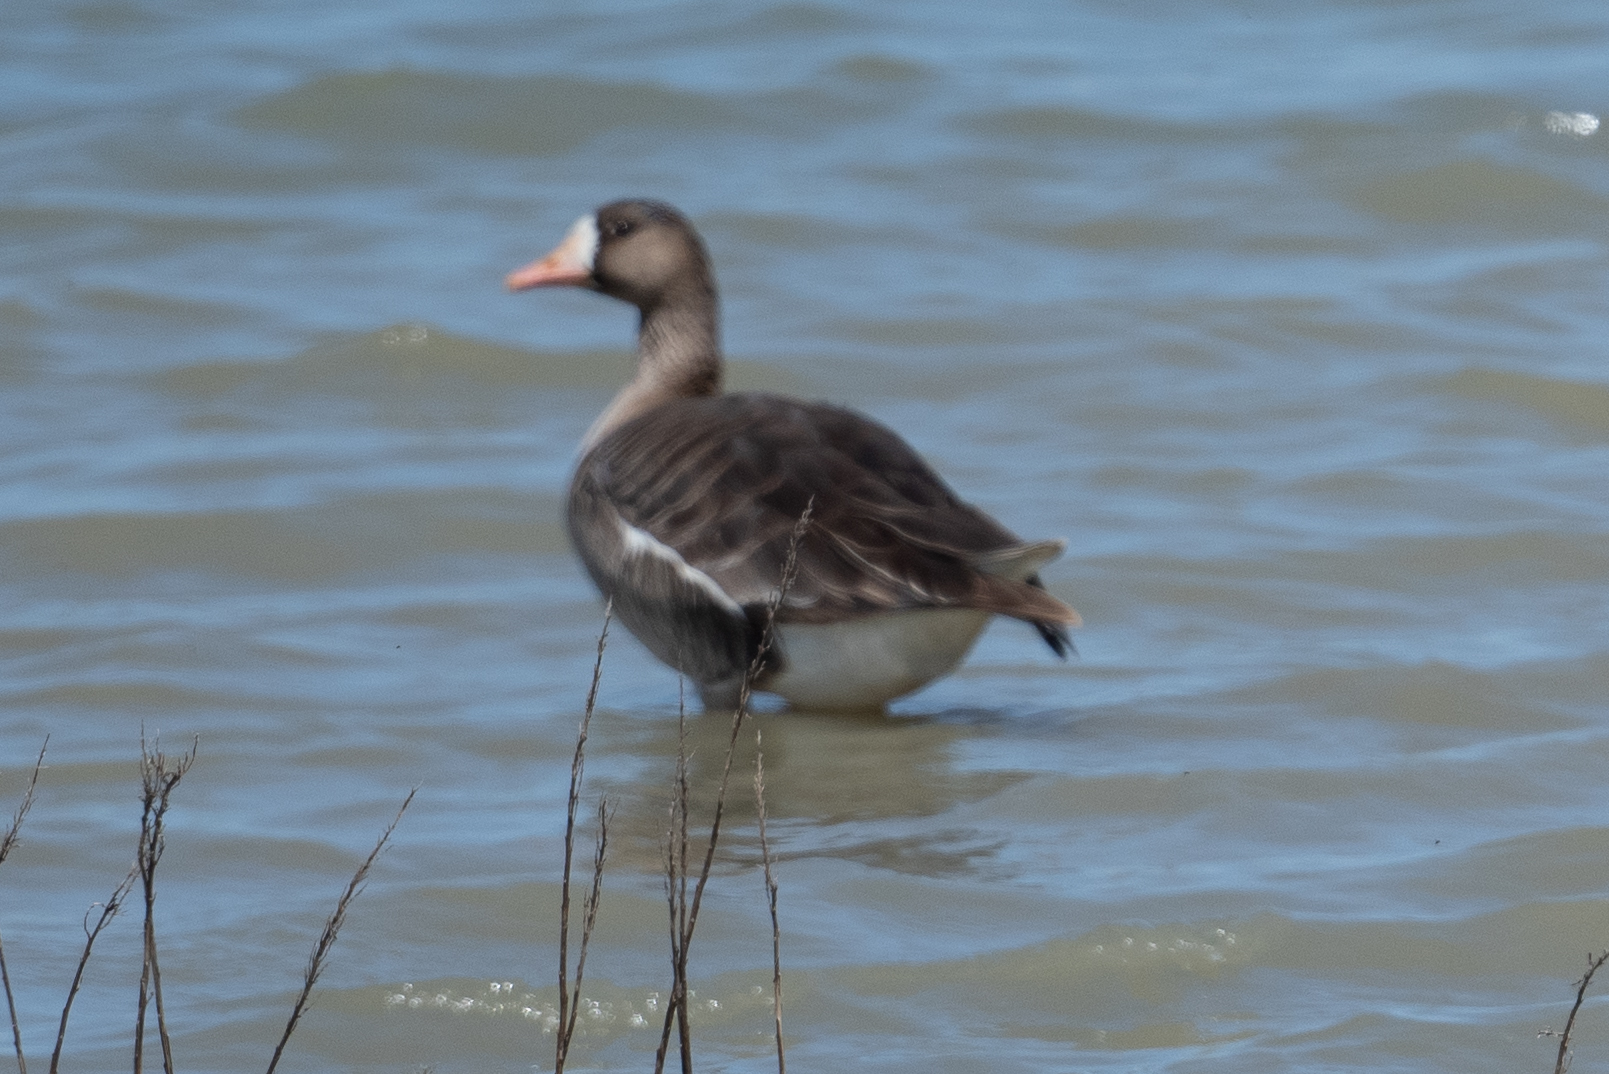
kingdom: Animalia
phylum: Chordata
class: Aves
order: Anseriformes
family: Anatidae
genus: Anser
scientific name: Anser albifrons
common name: Greater white-fronted goose
